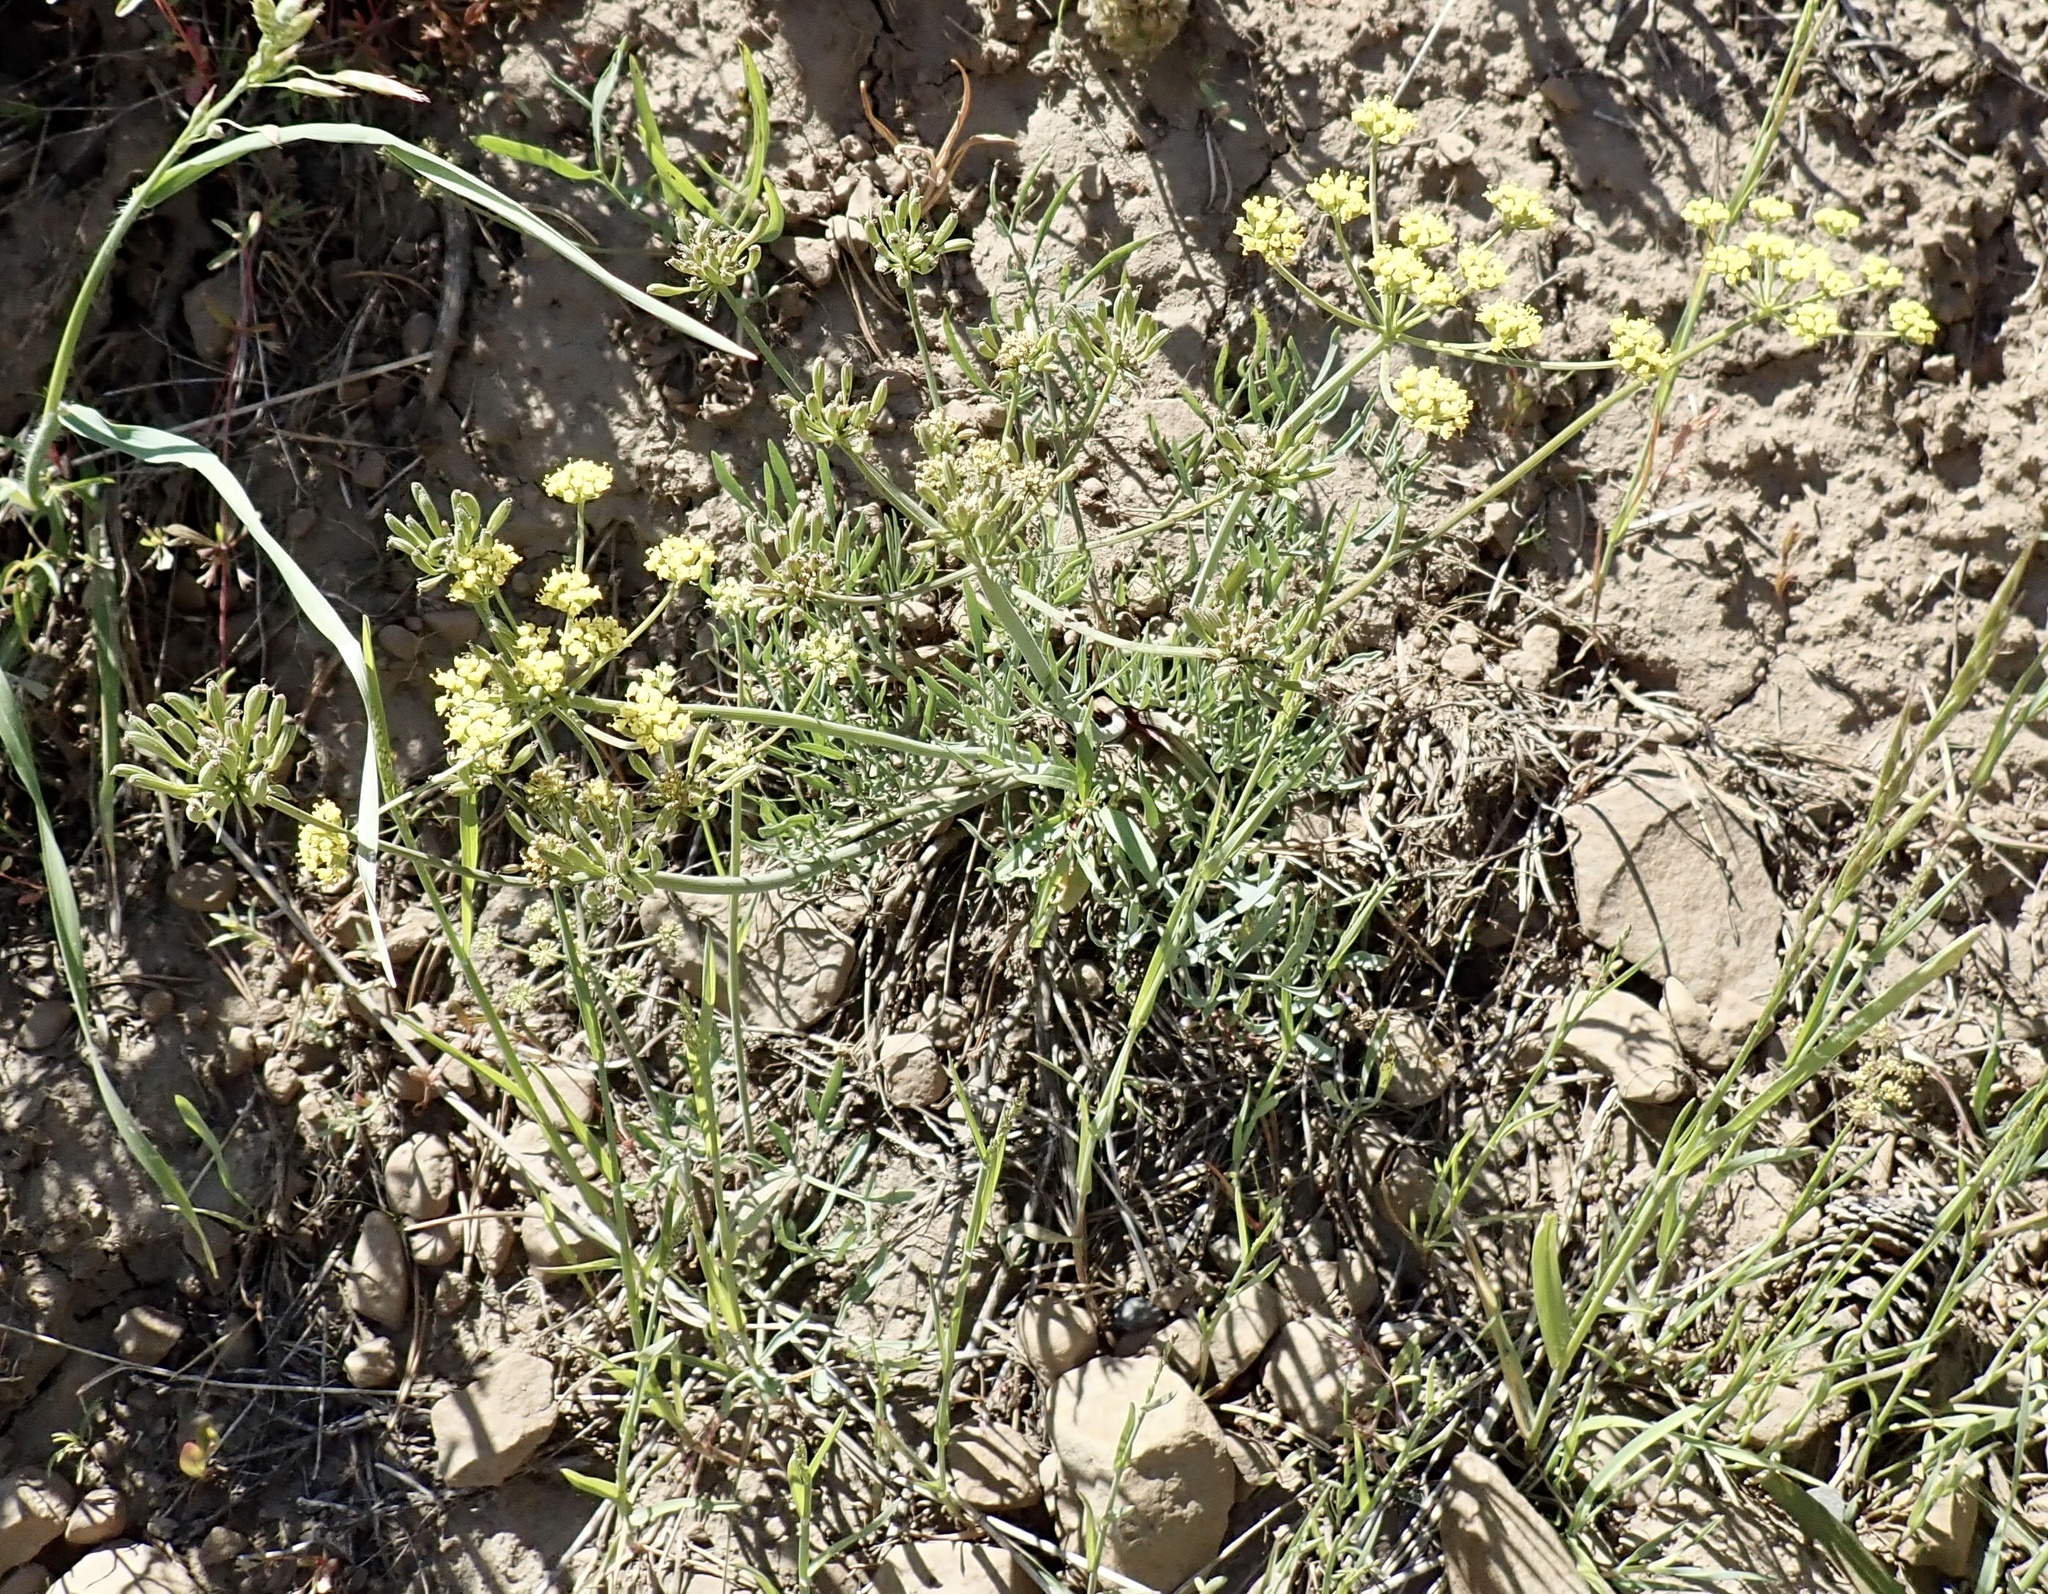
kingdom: Plantae
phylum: Tracheophyta
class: Magnoliopsida
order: Apiales
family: Apiaceae
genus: Lomatium
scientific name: Lomatium triternatum
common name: Ternate lomatium
